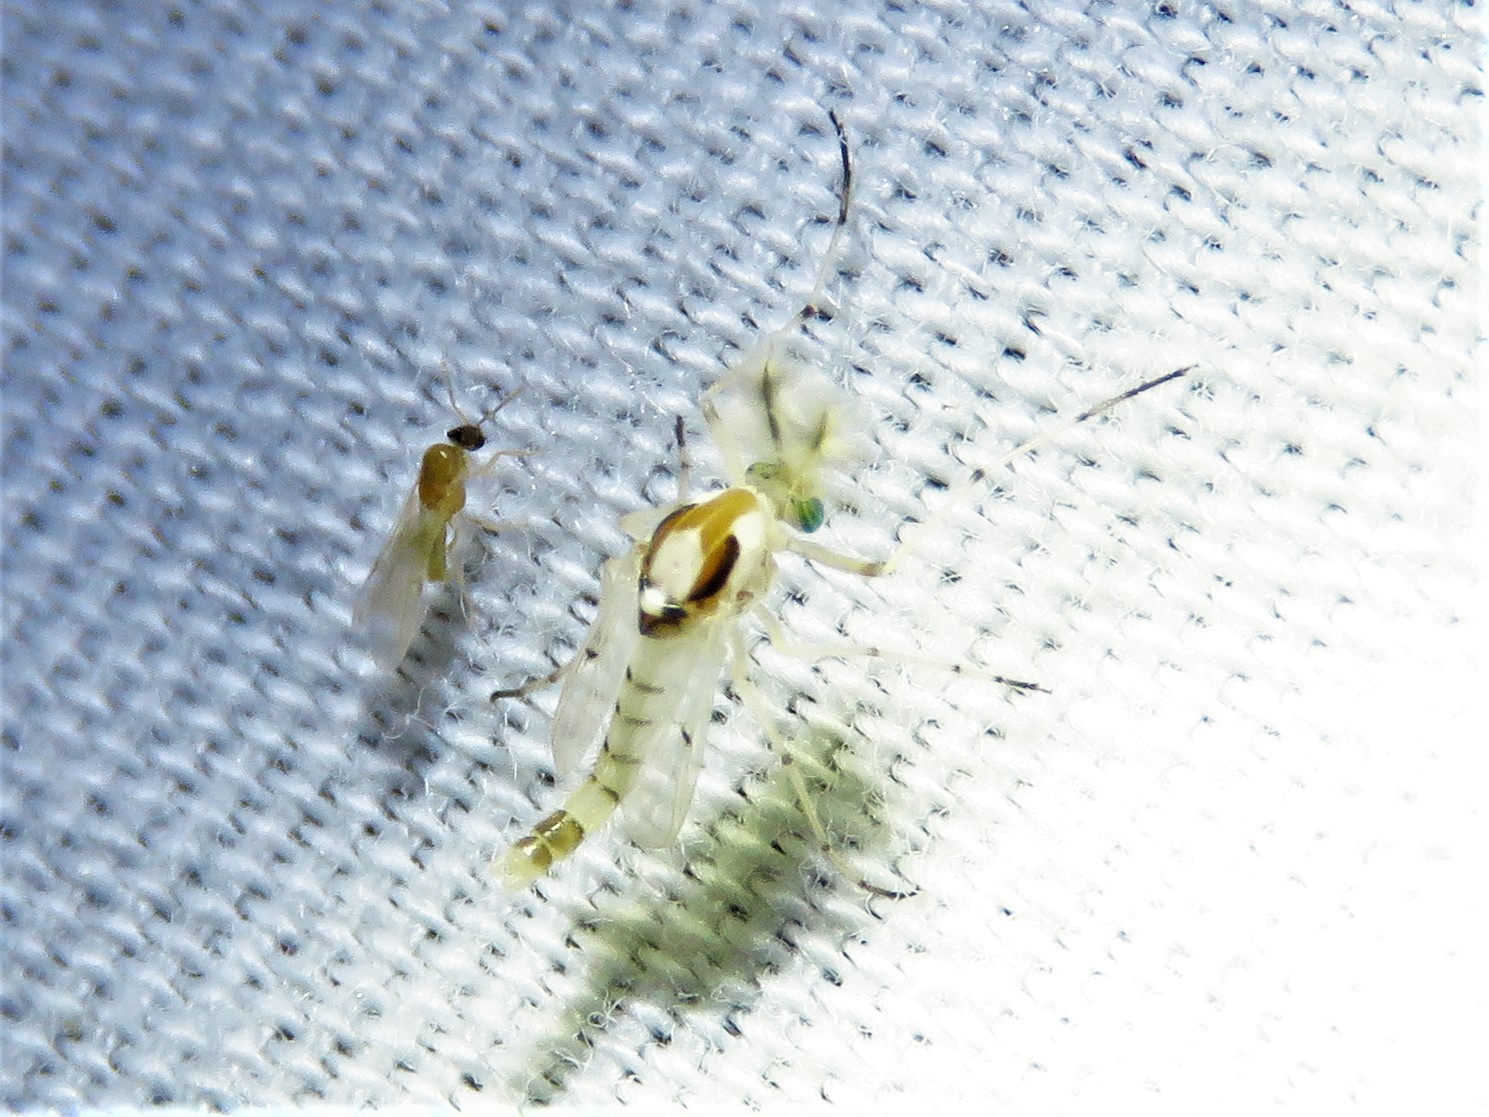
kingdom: Animalia
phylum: Arthropoda
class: Insecta
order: Diptera
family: Chironomidae
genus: Coelotanypus
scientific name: Coelotanypus concinnus
